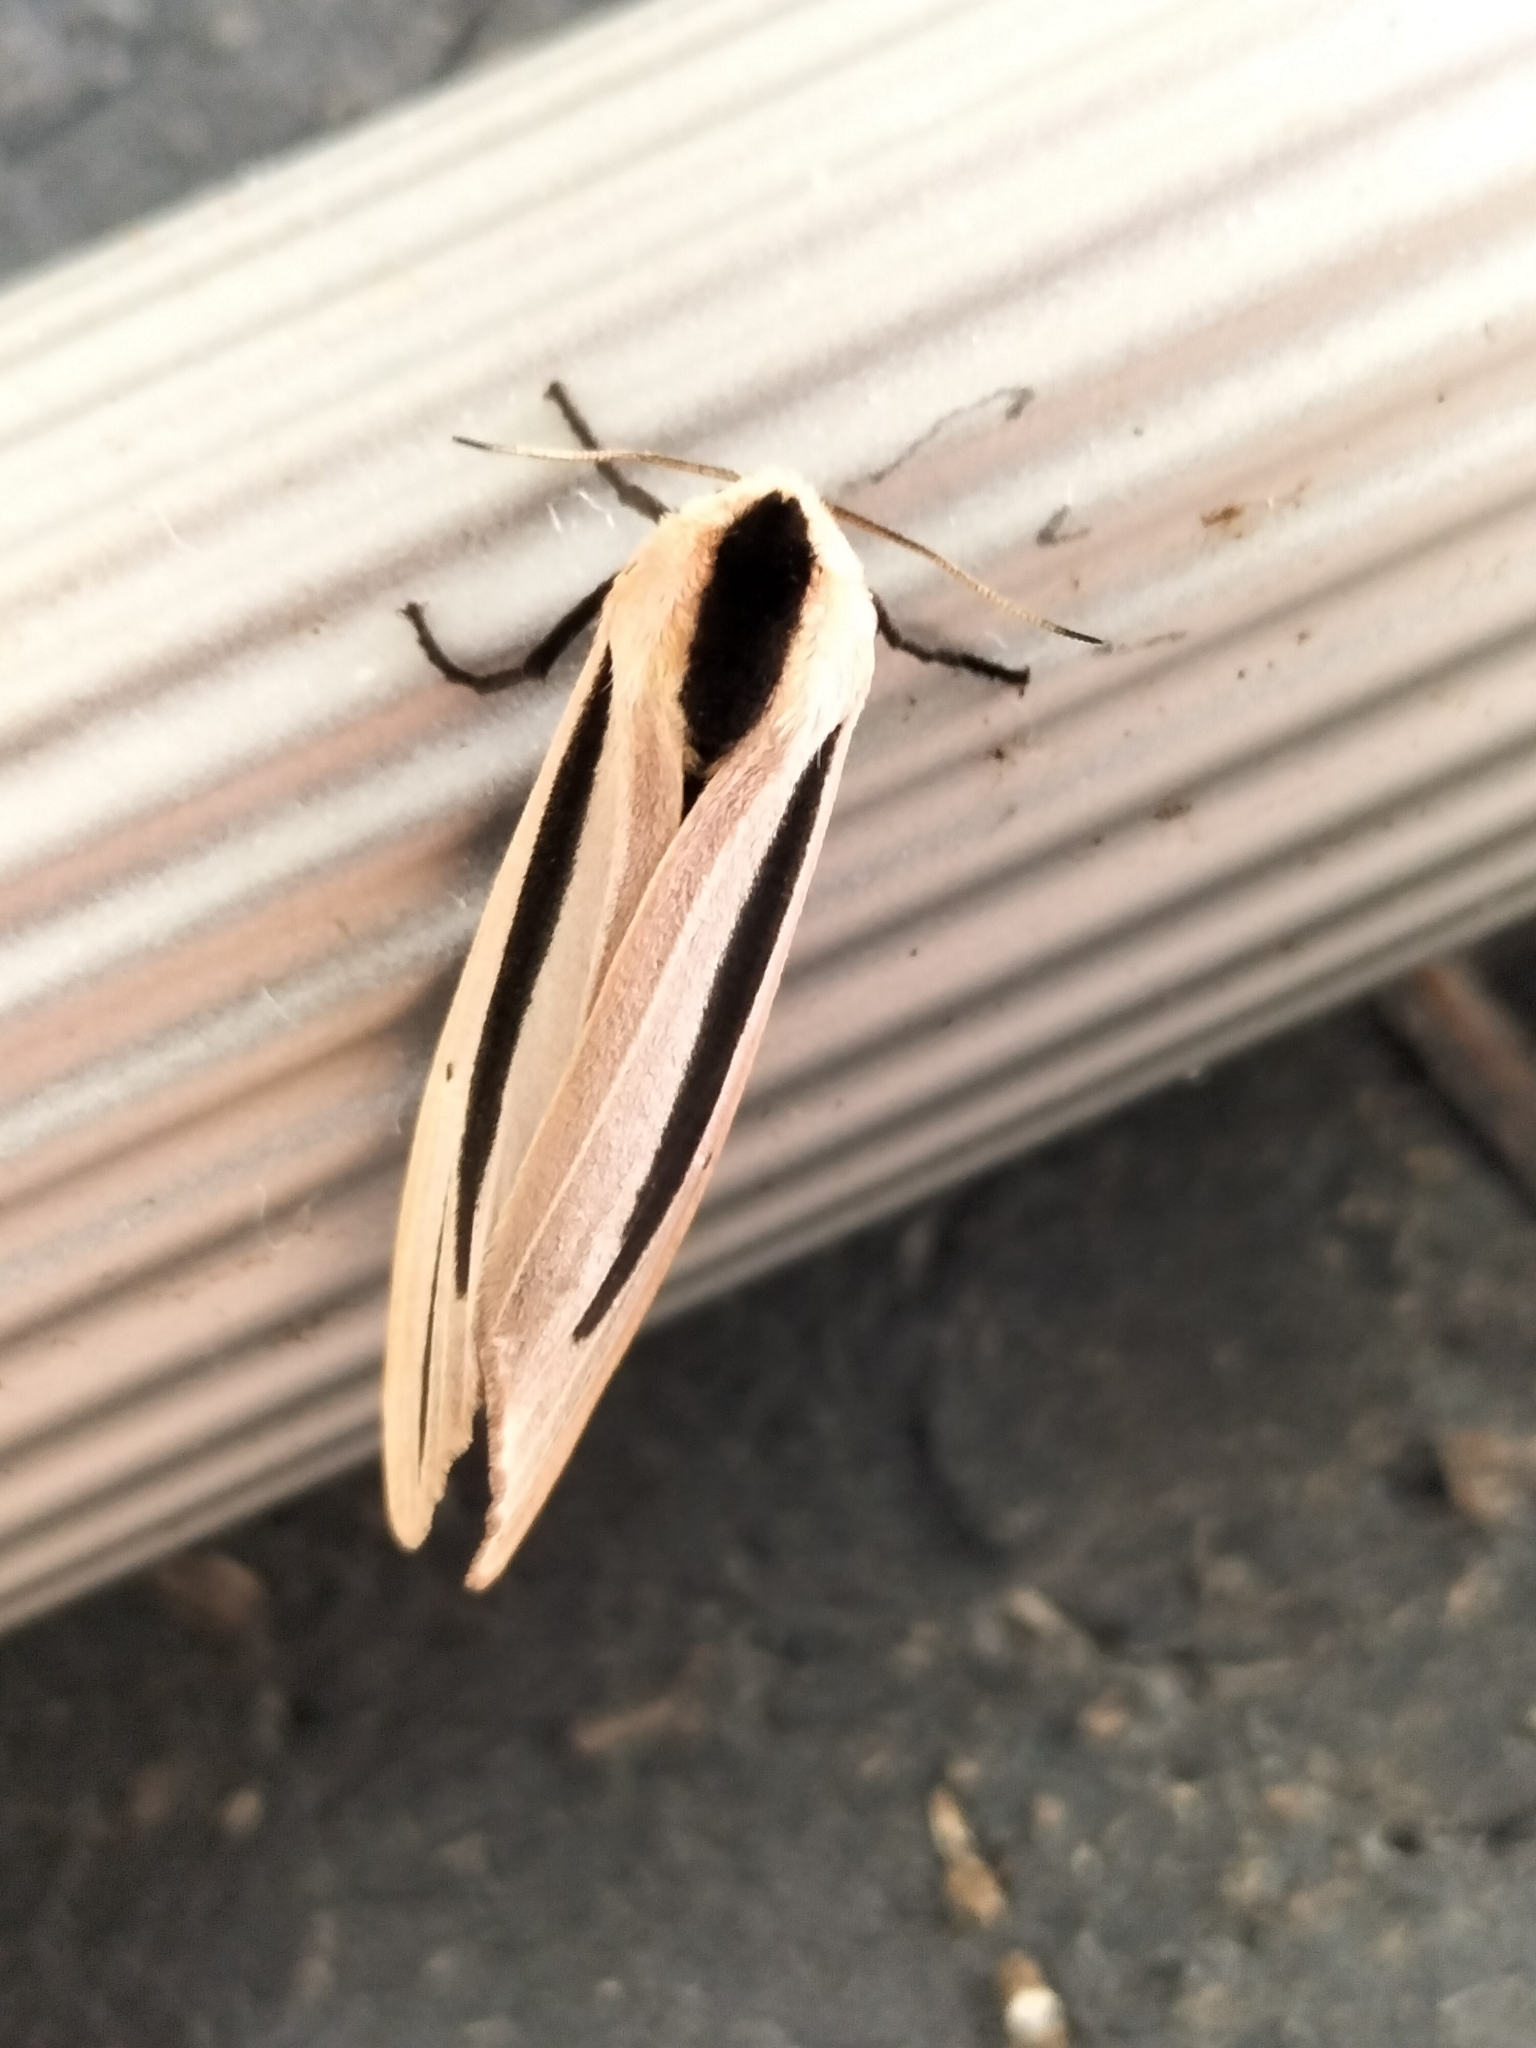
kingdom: Animalia
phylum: Arthropoda
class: Insecta
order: Lepidoptera
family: Erebidae
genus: Creatonotos
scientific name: Creatonotos gangis
